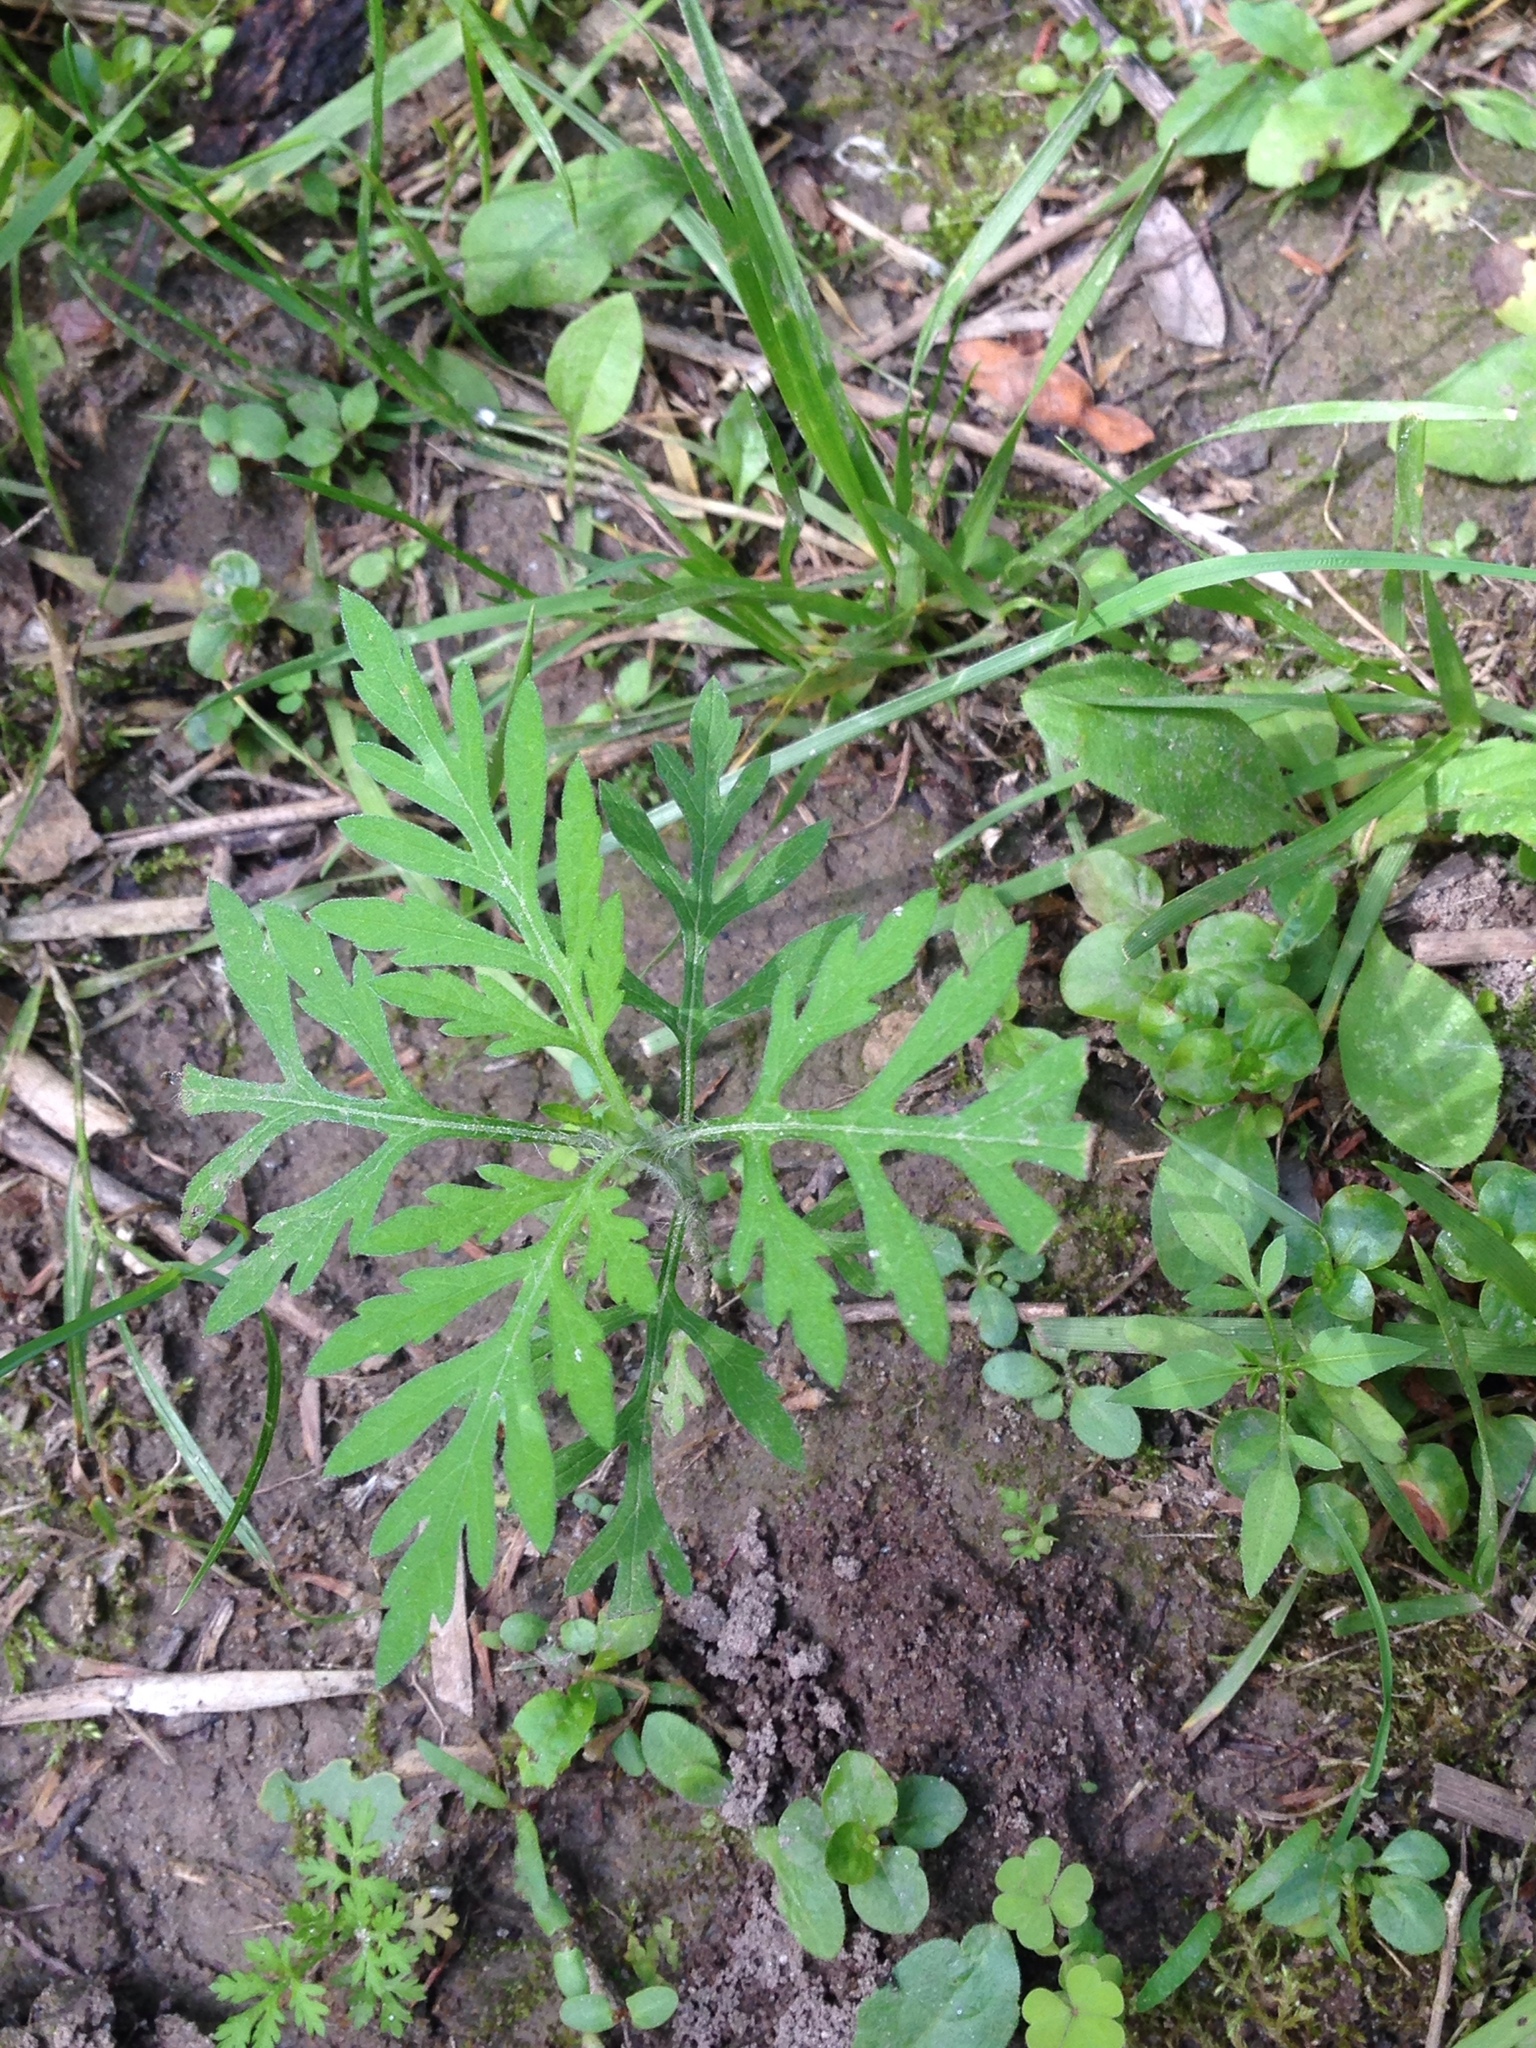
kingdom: Plantae
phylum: Tracheophyta
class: Magnoliopsida
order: Asterales
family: Asteraceae
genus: Ambrosia
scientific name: Ambrosia artemisiifolia
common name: Annual ragweed
